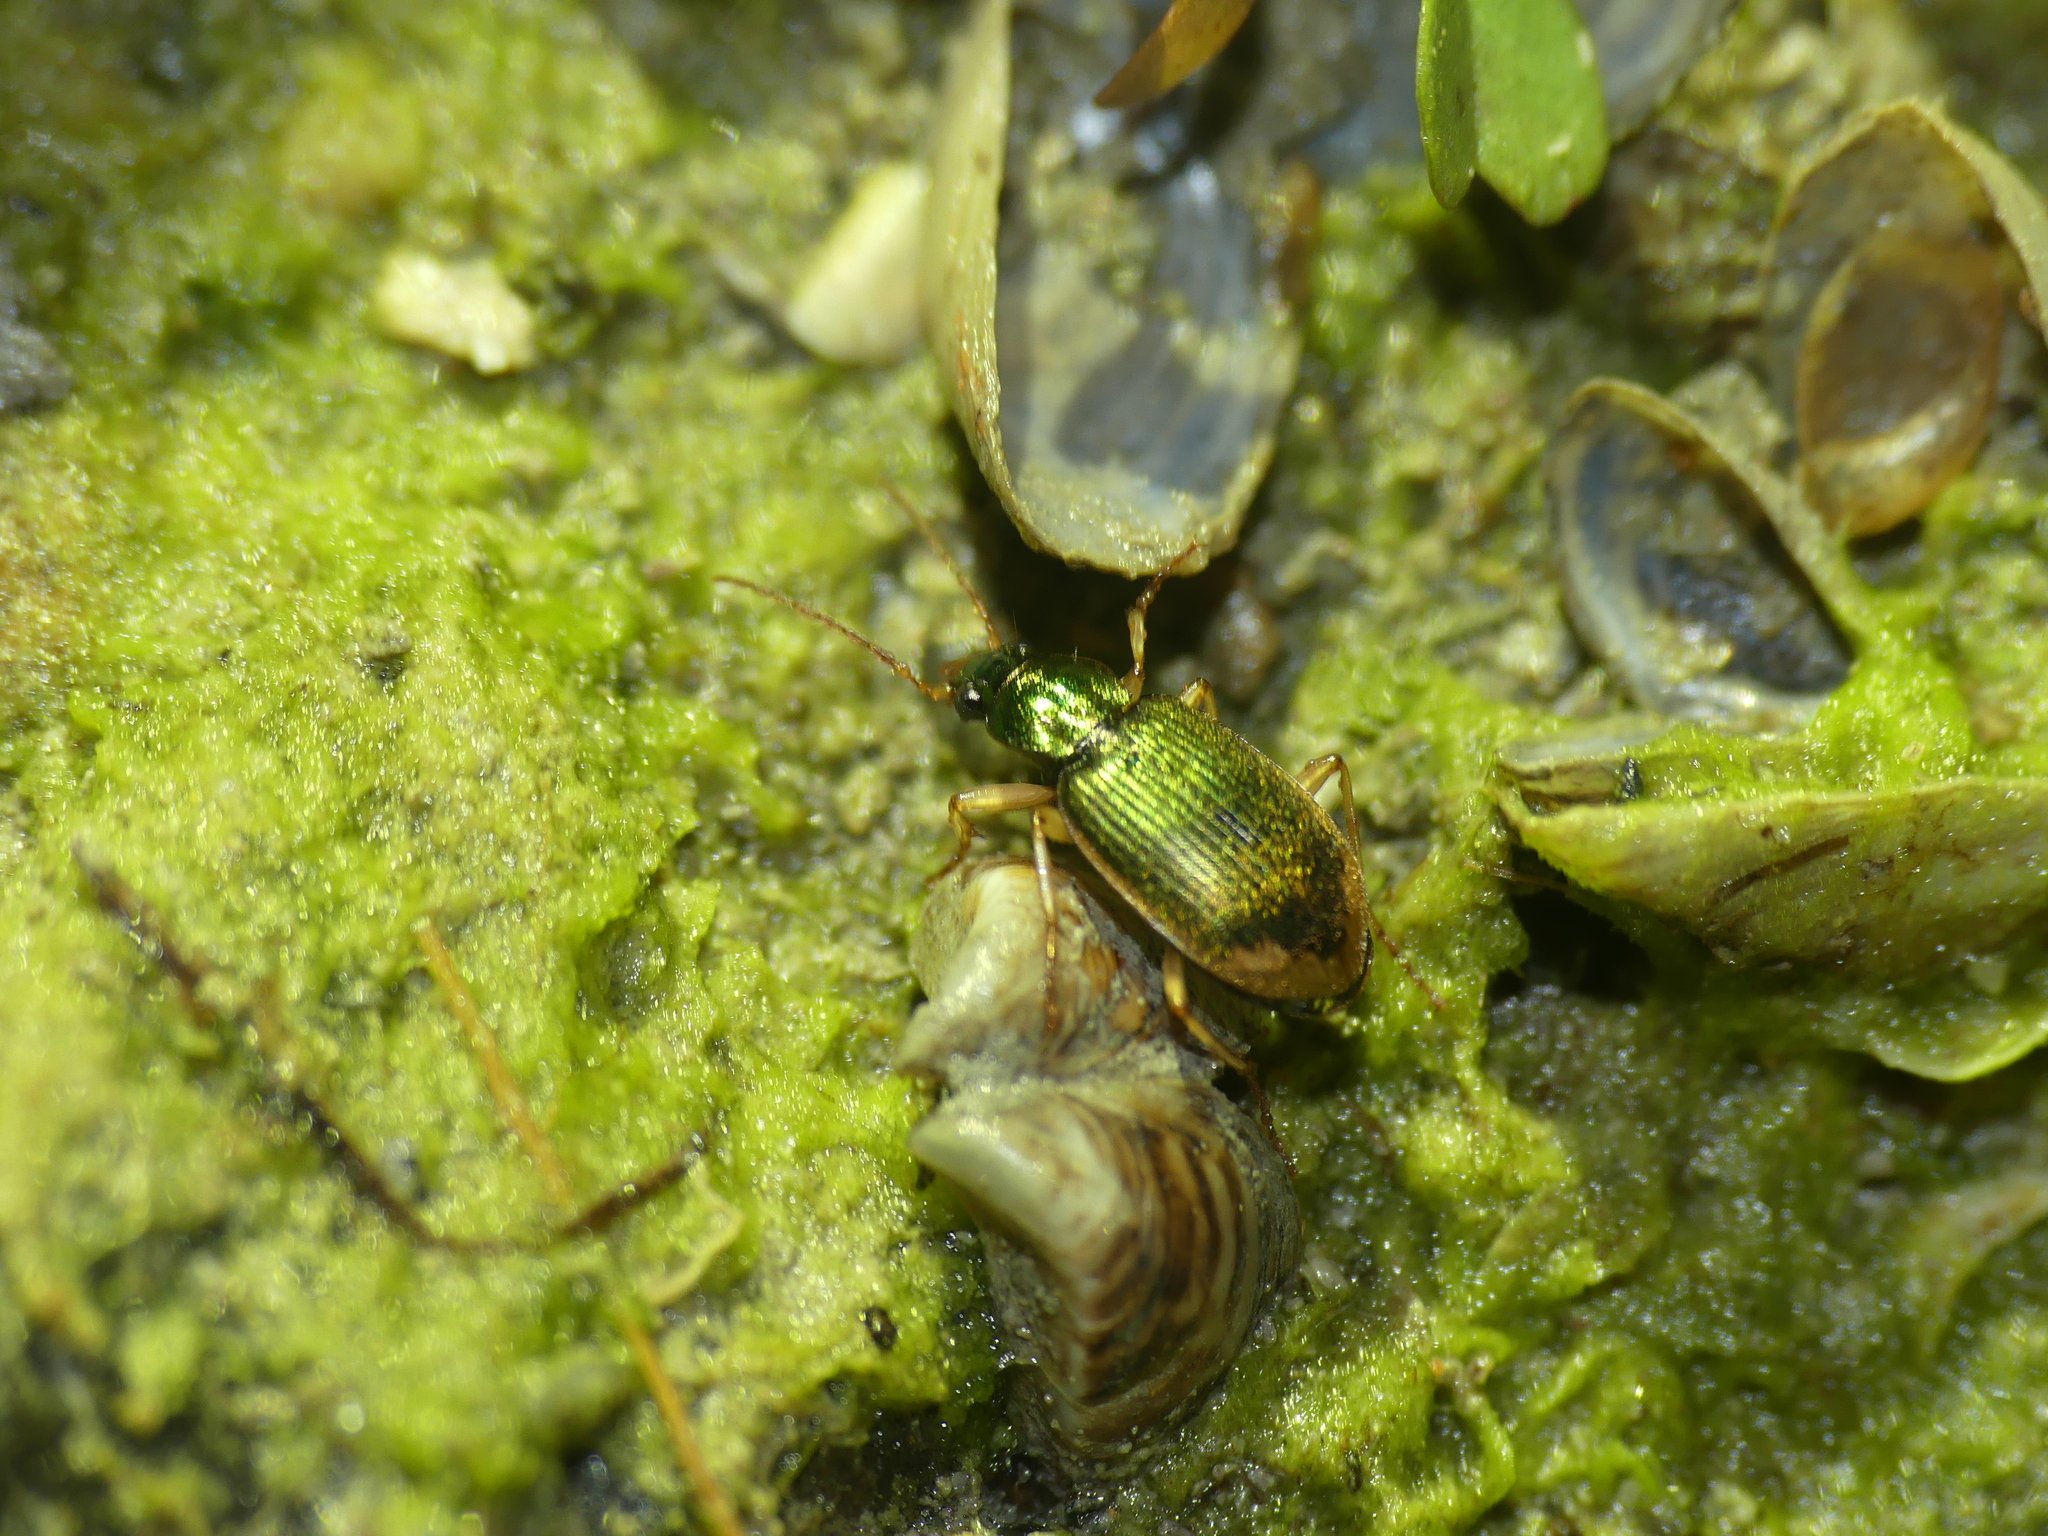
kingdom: Animalia
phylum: Arthropoda
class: Insecta
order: Coleoptera
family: Carabidae
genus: Chlaenius
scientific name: Chlaenius vestitus
